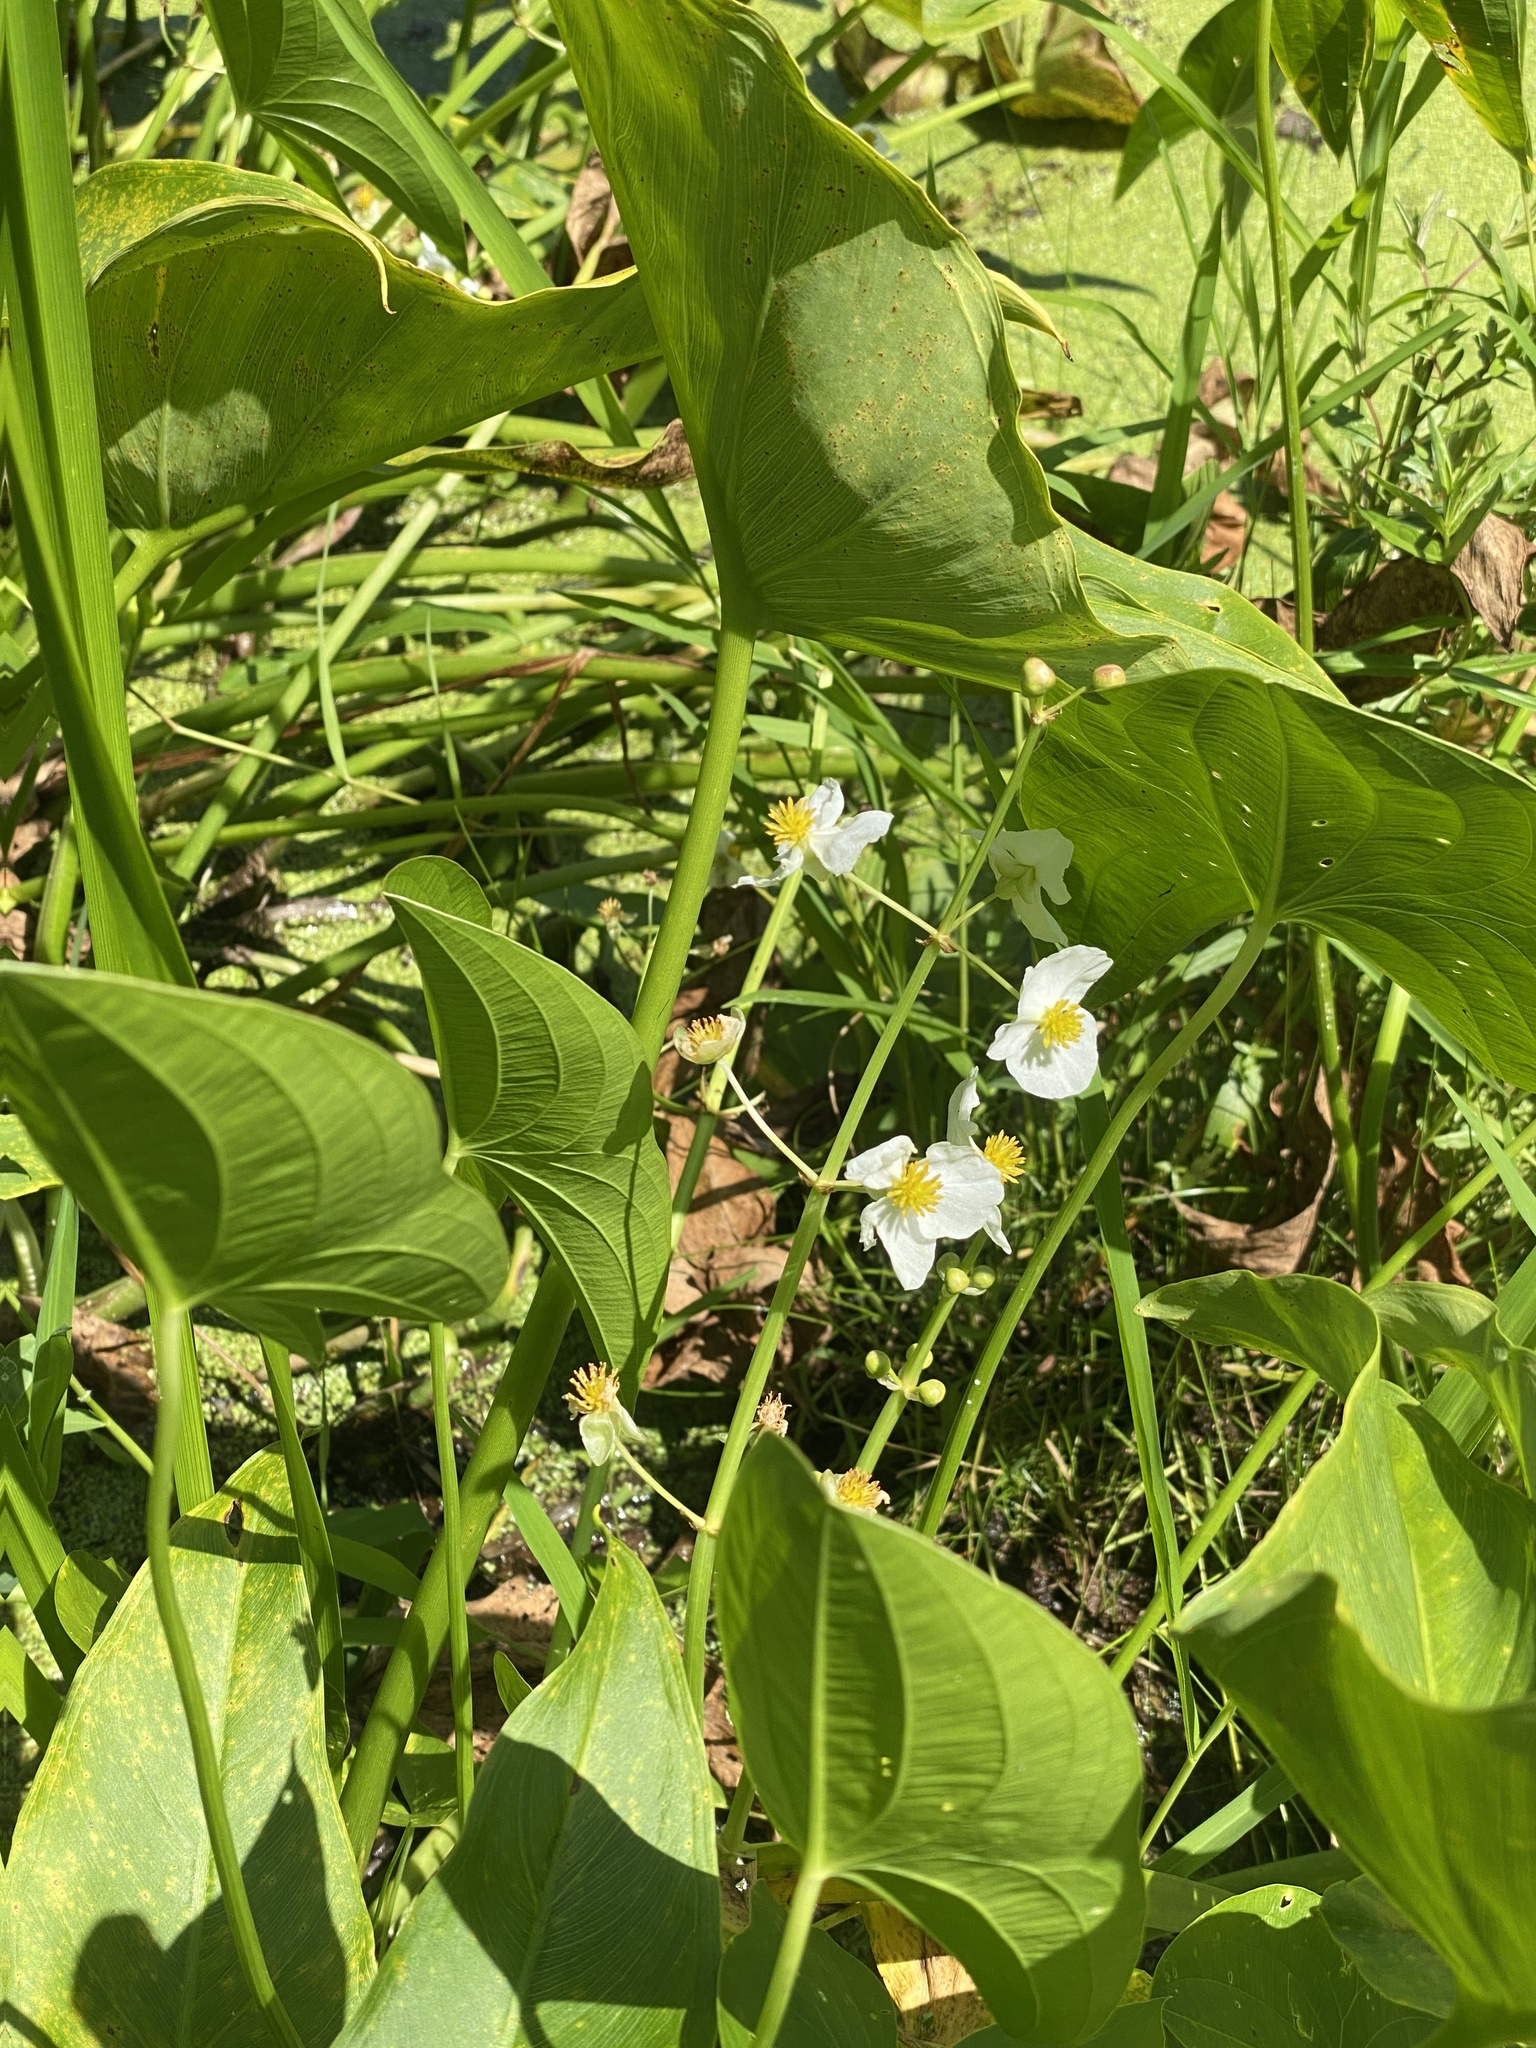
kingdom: Plantae
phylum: Tracheophyta
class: Liliopsida
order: Alismatales
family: Alismataceae
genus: Sagittaria
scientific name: Sagittaria latifolia
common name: Duck-potato
